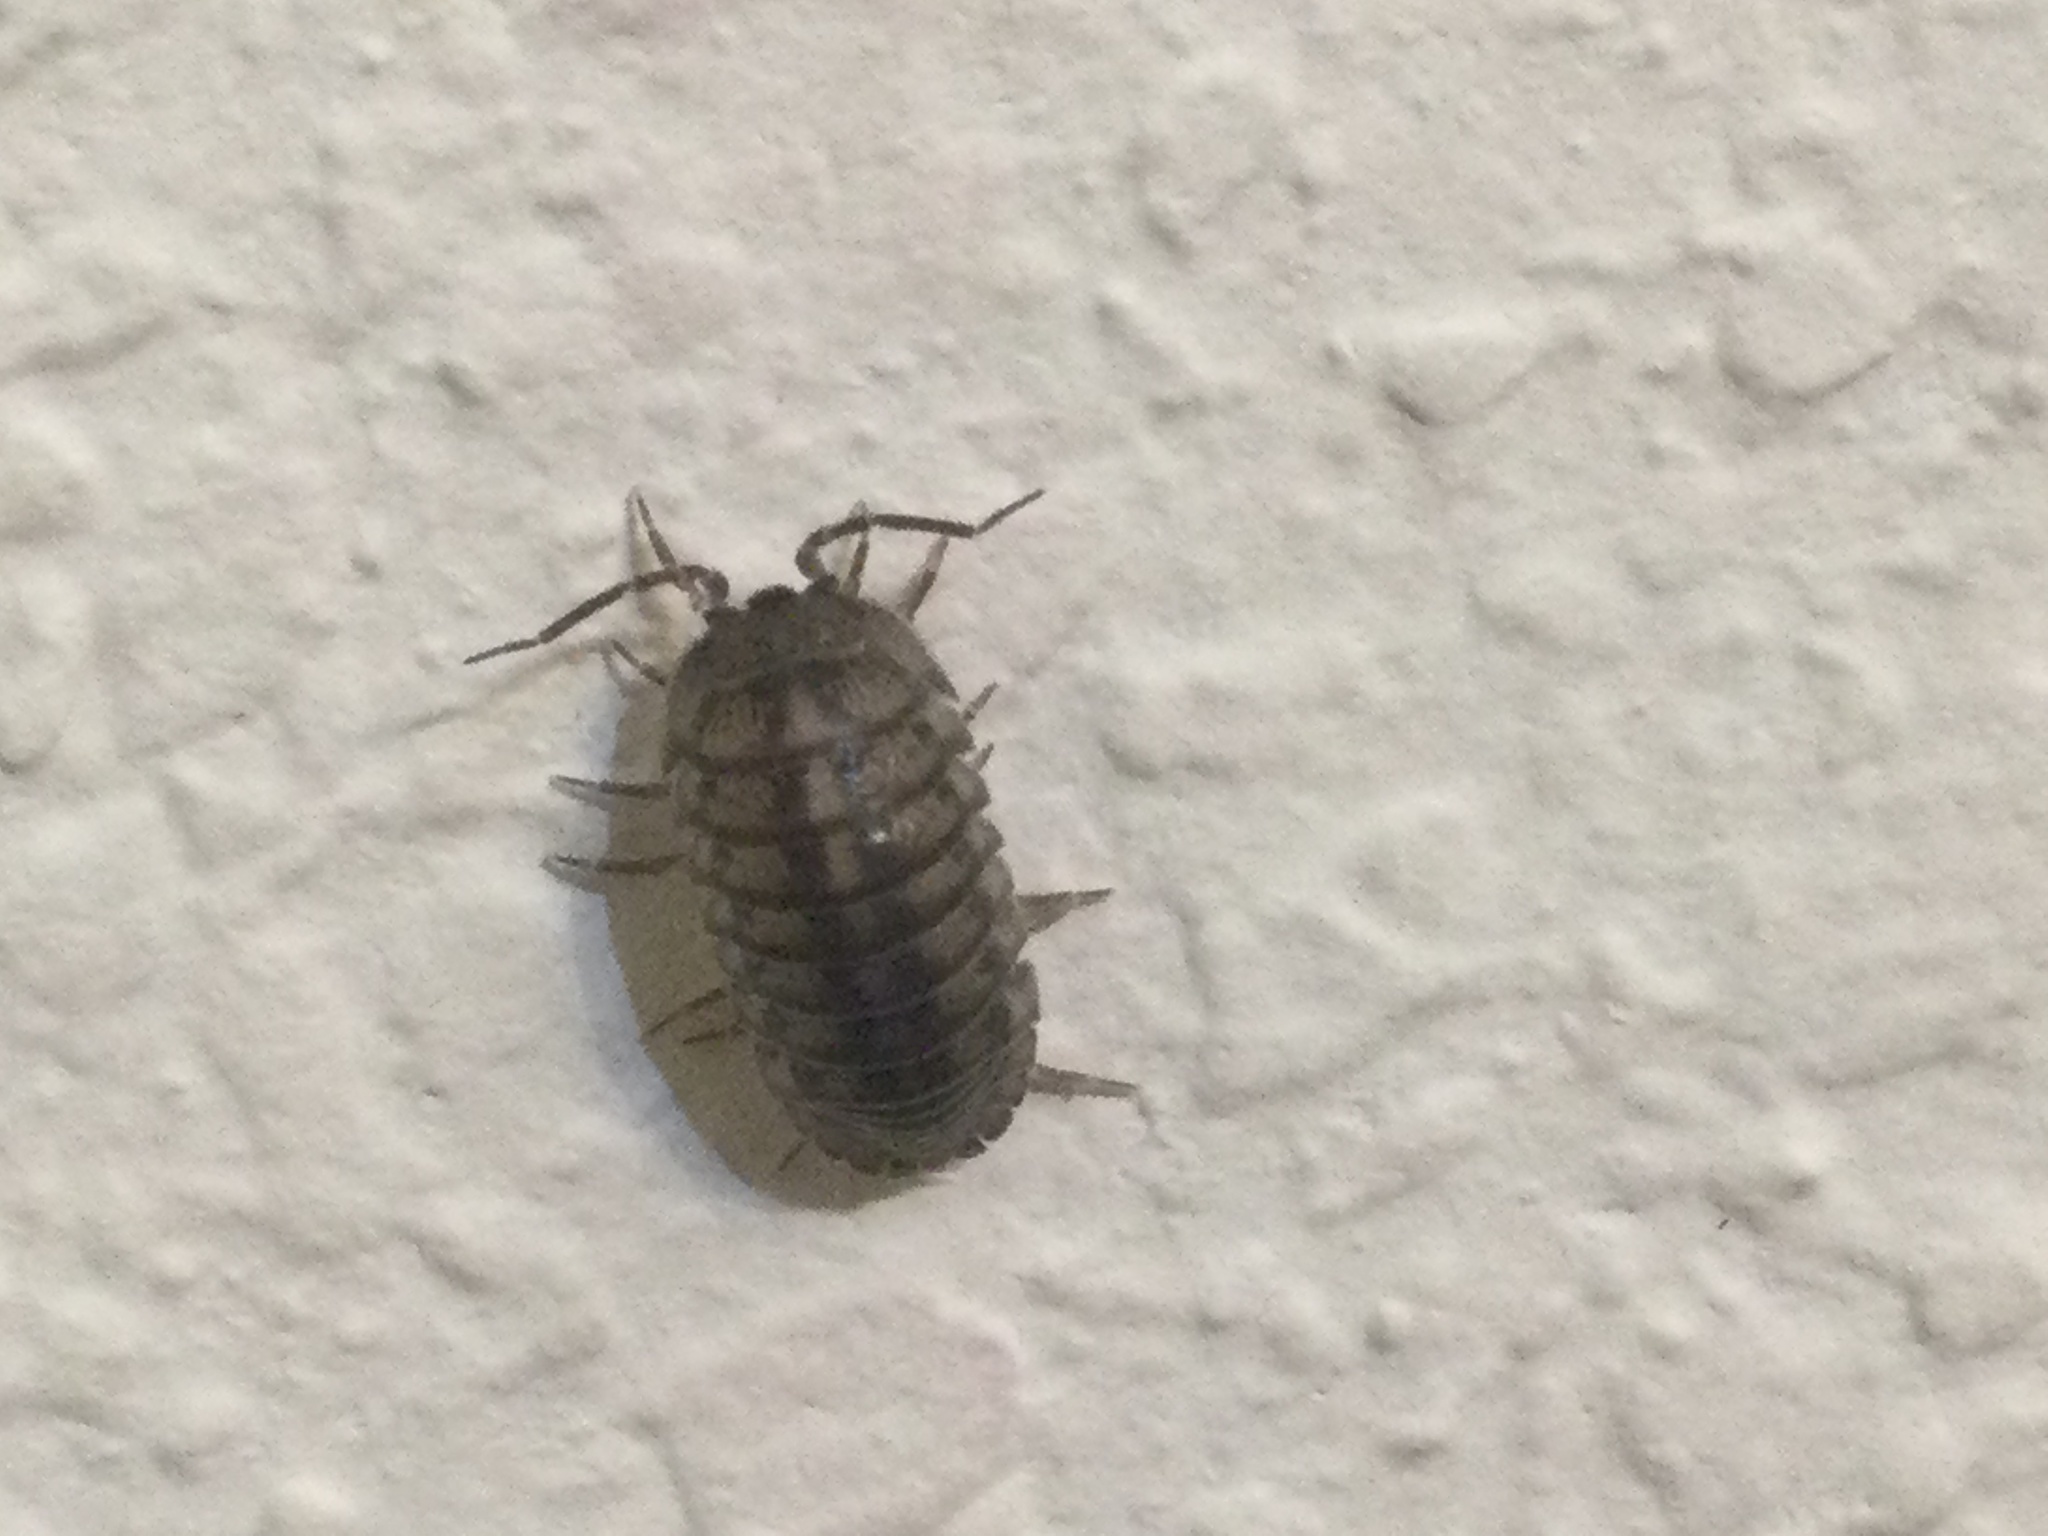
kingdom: Animalia
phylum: Arthropoda
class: Malacostraca
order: Isopoda
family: Armadillidiidae
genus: Armadillidium
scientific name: Armadillidium nasatum
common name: Isopod
